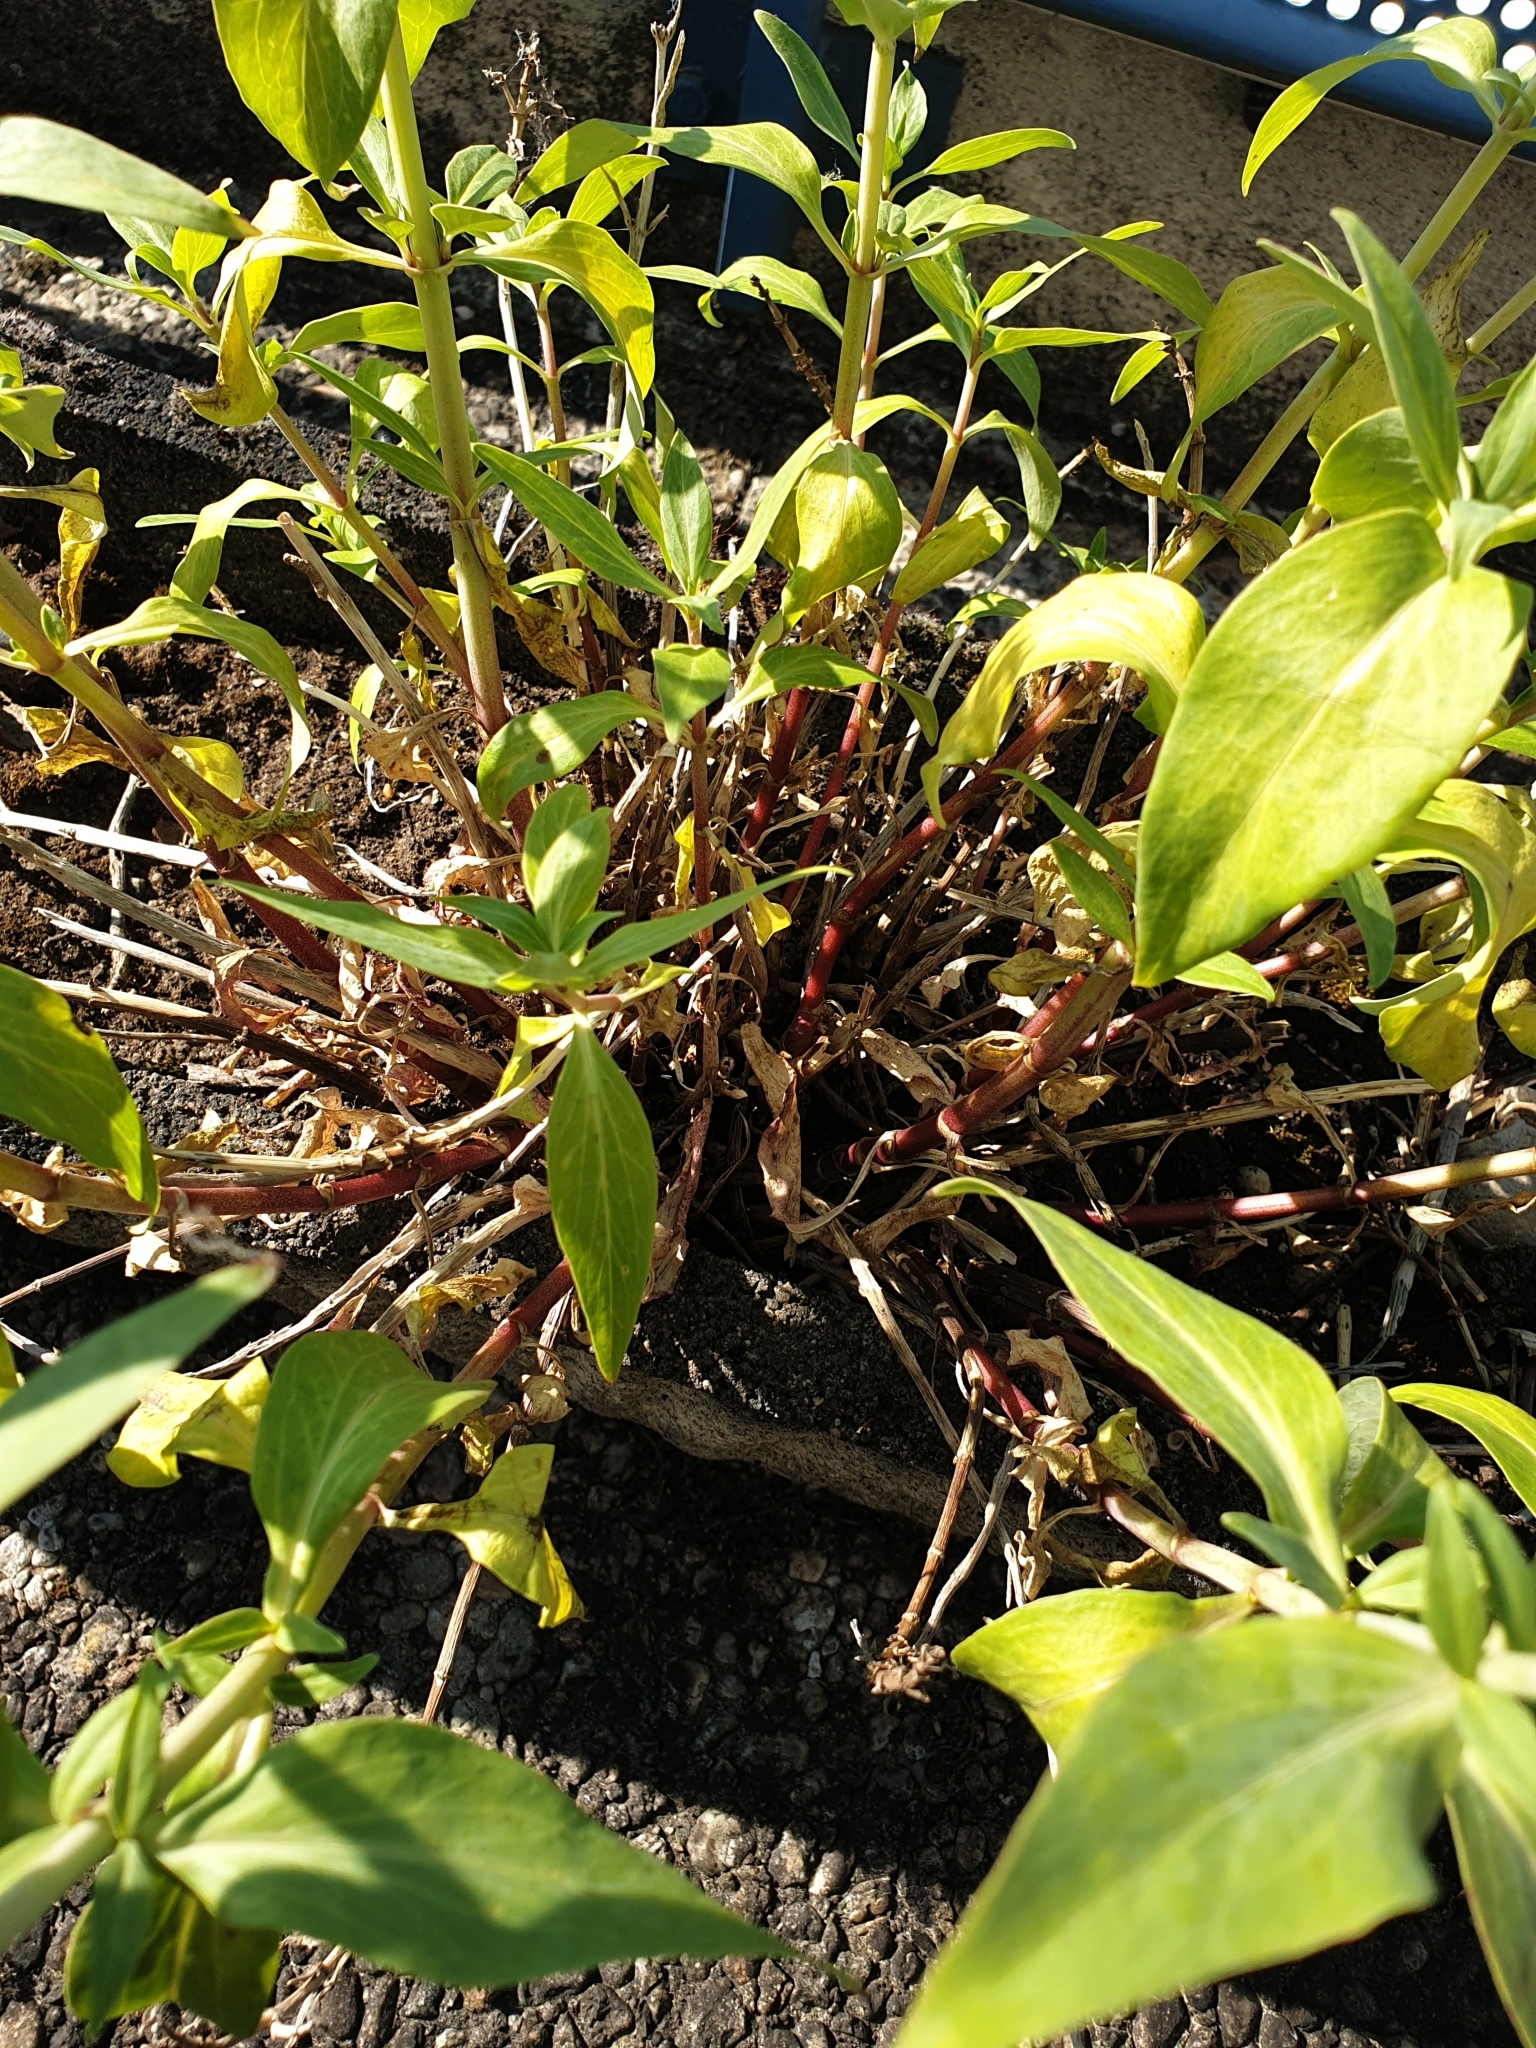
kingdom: Plantae
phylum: Tracheophyta
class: Magnoliopsida
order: Dipsacales
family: Caprifoliaceae
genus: Centranthus
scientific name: Centranthus ruber
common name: Red valerian
